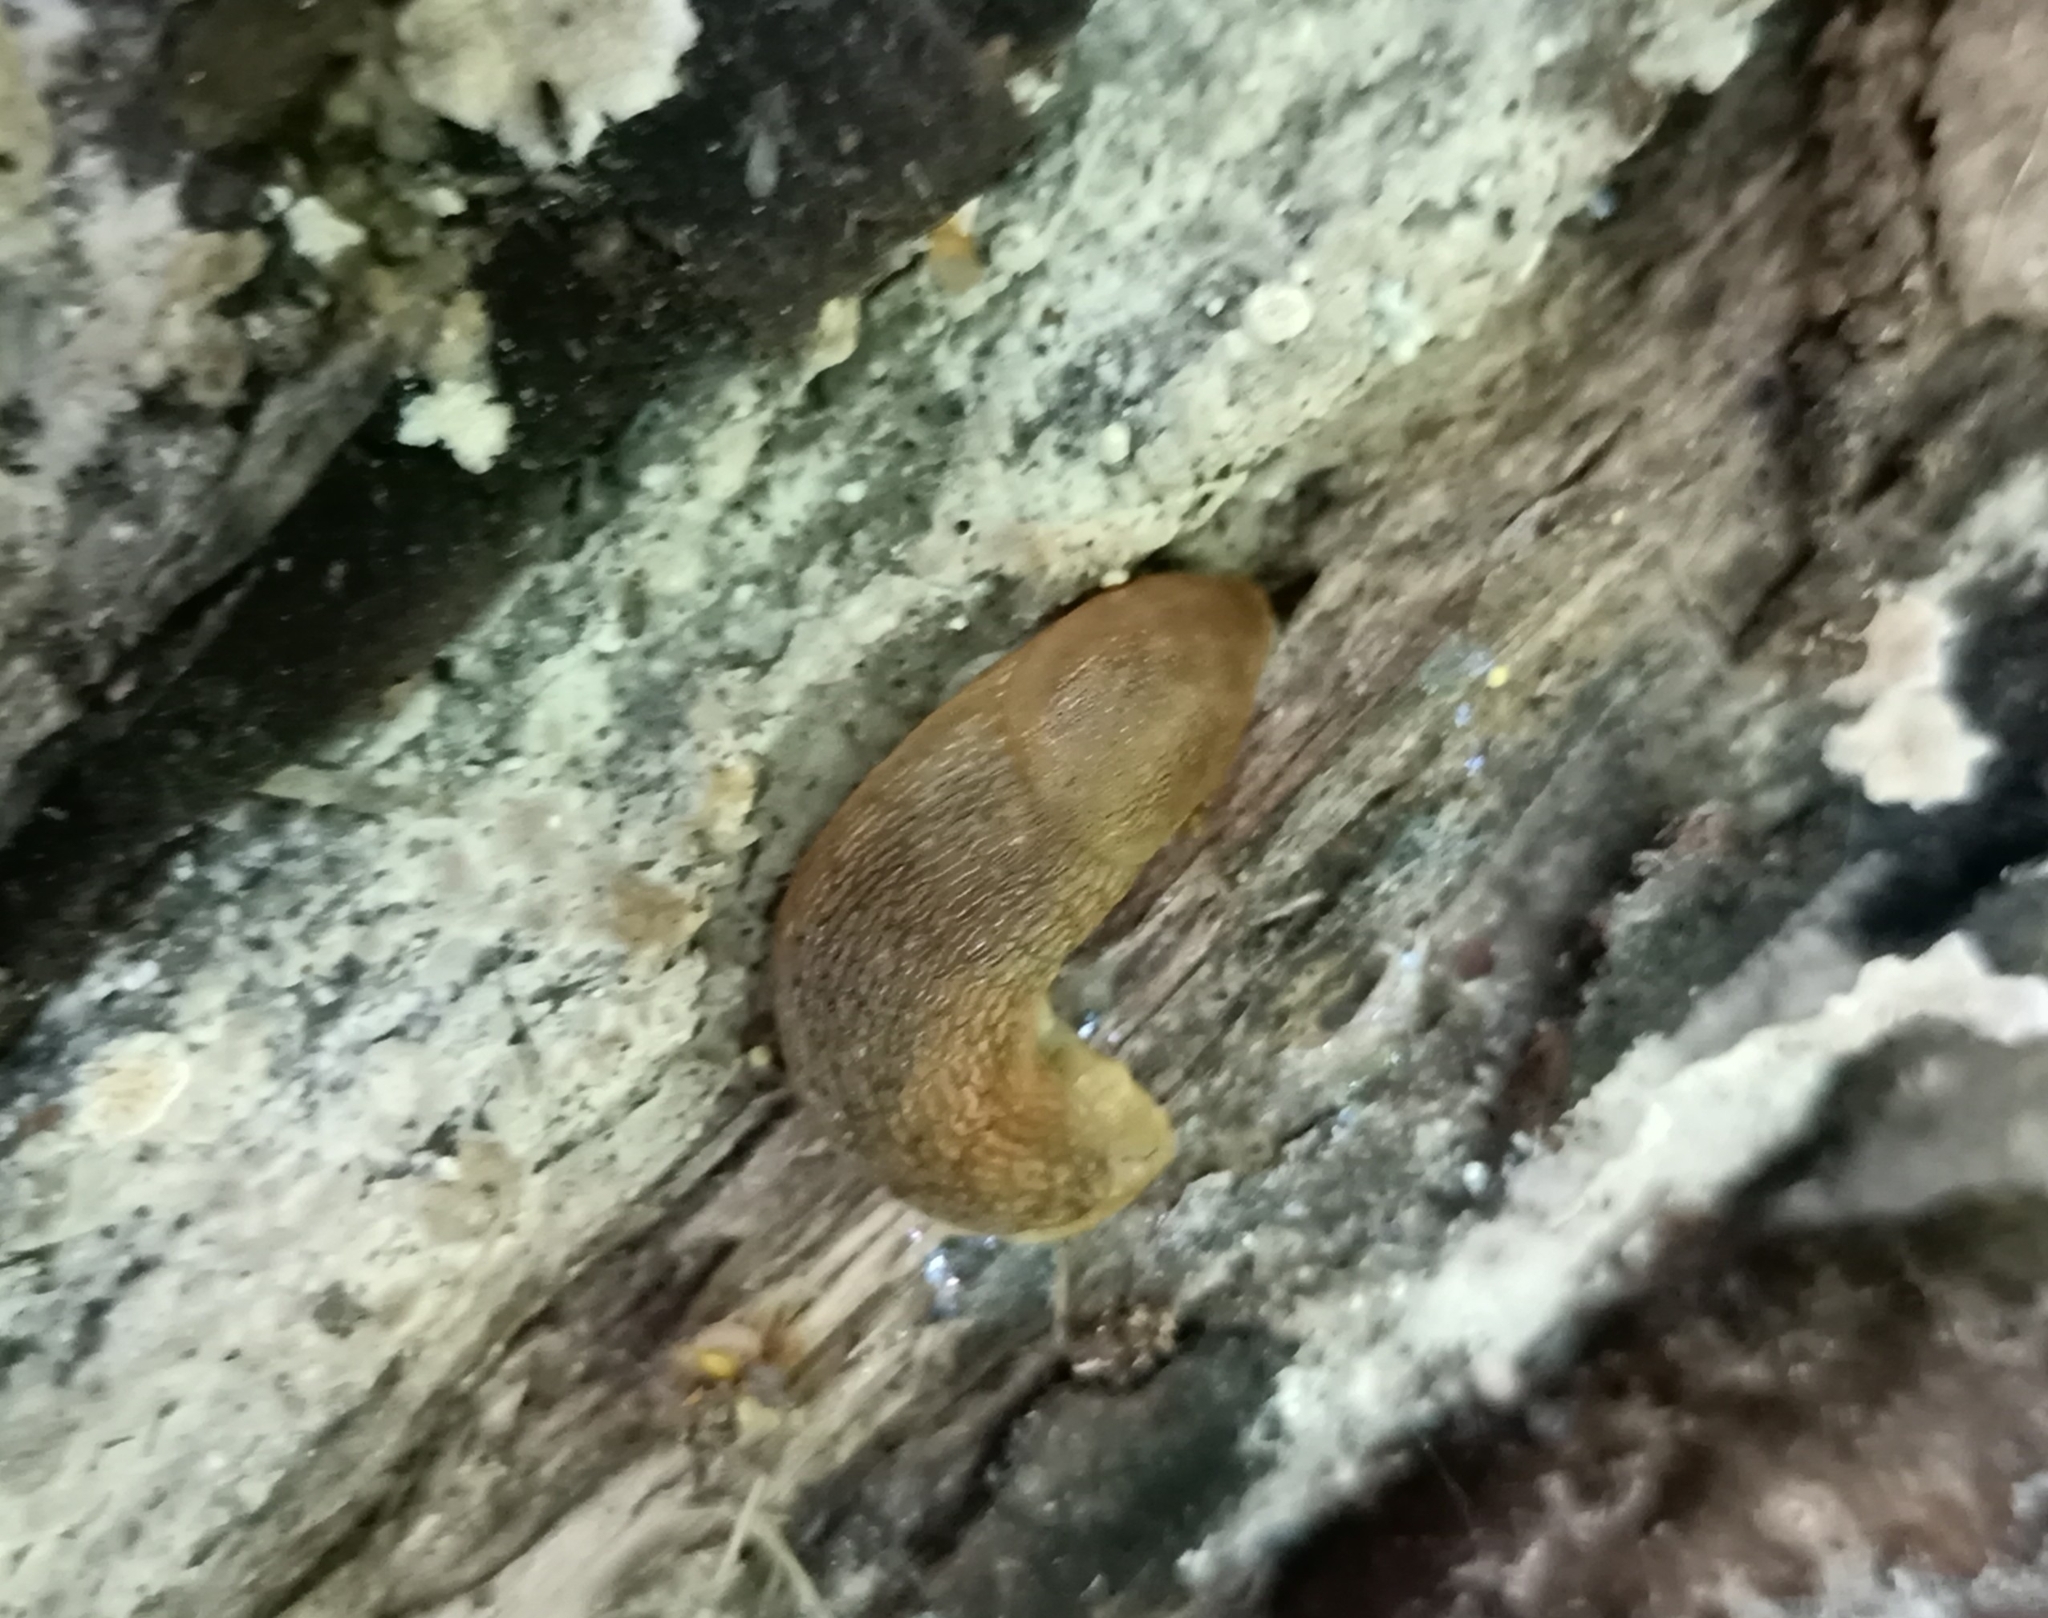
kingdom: Animalia
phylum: Mollusca
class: Gastropoda
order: Stylommatophora
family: Arionidae
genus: Arion
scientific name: Arion fuscus
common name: Northern dusky slug
